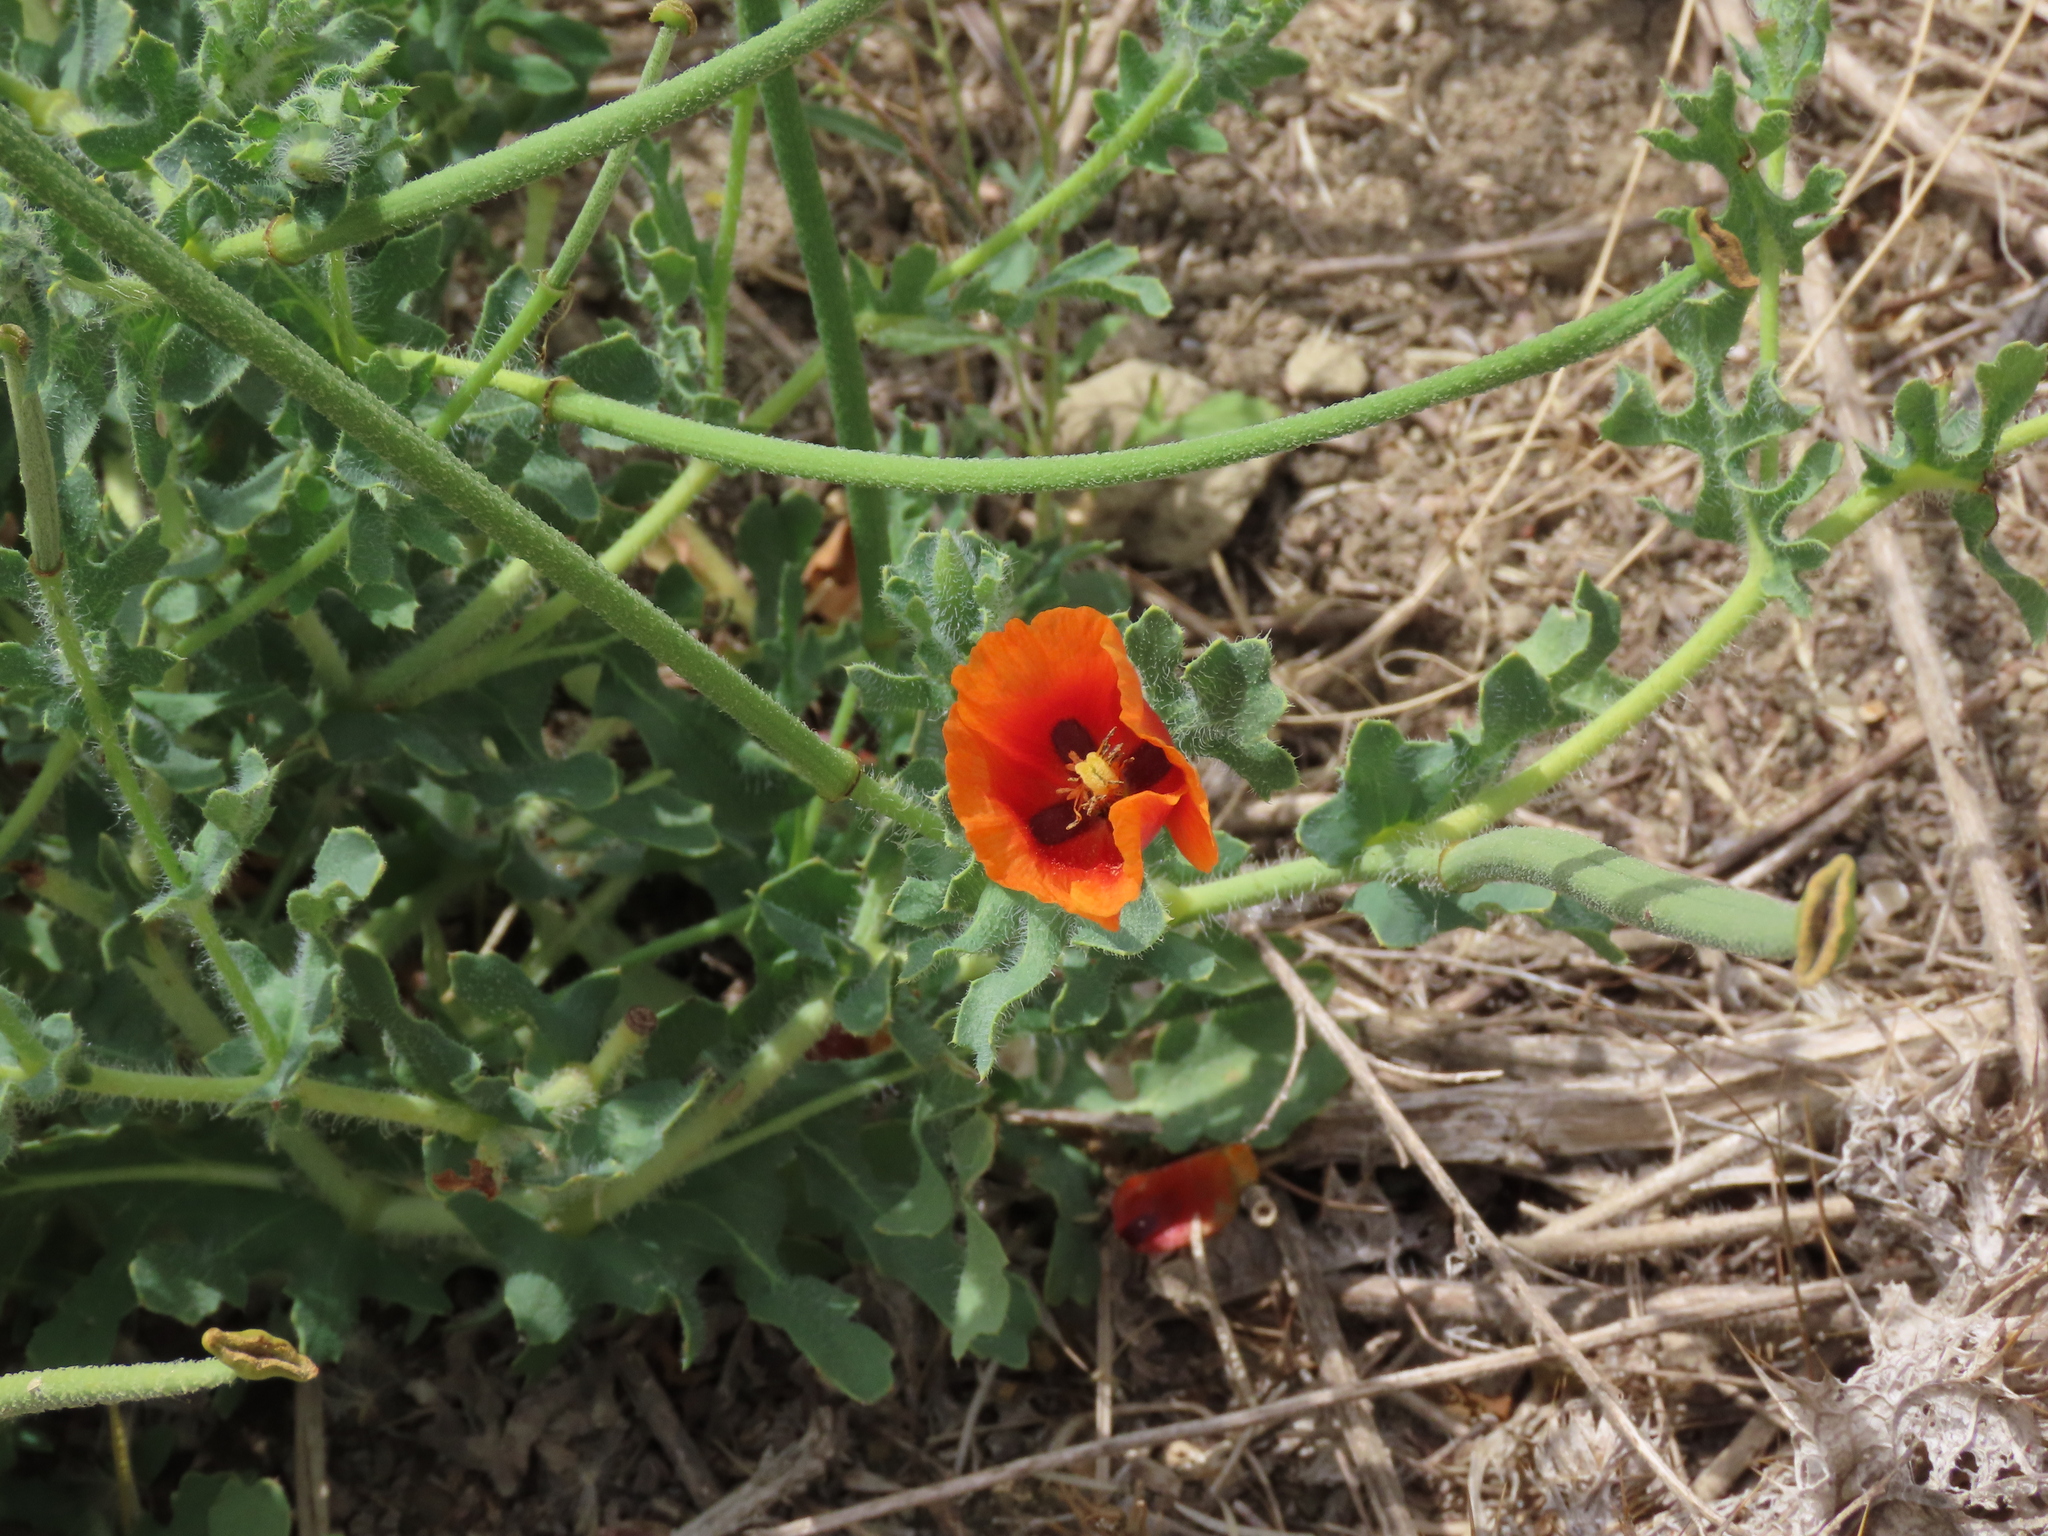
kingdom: Plantae
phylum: Tracheophyta
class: Magnoliopsida
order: Ranunculales
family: Papaveraceae
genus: Glaucium
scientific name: Glaucium corniculatum
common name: Red horned-poppy
